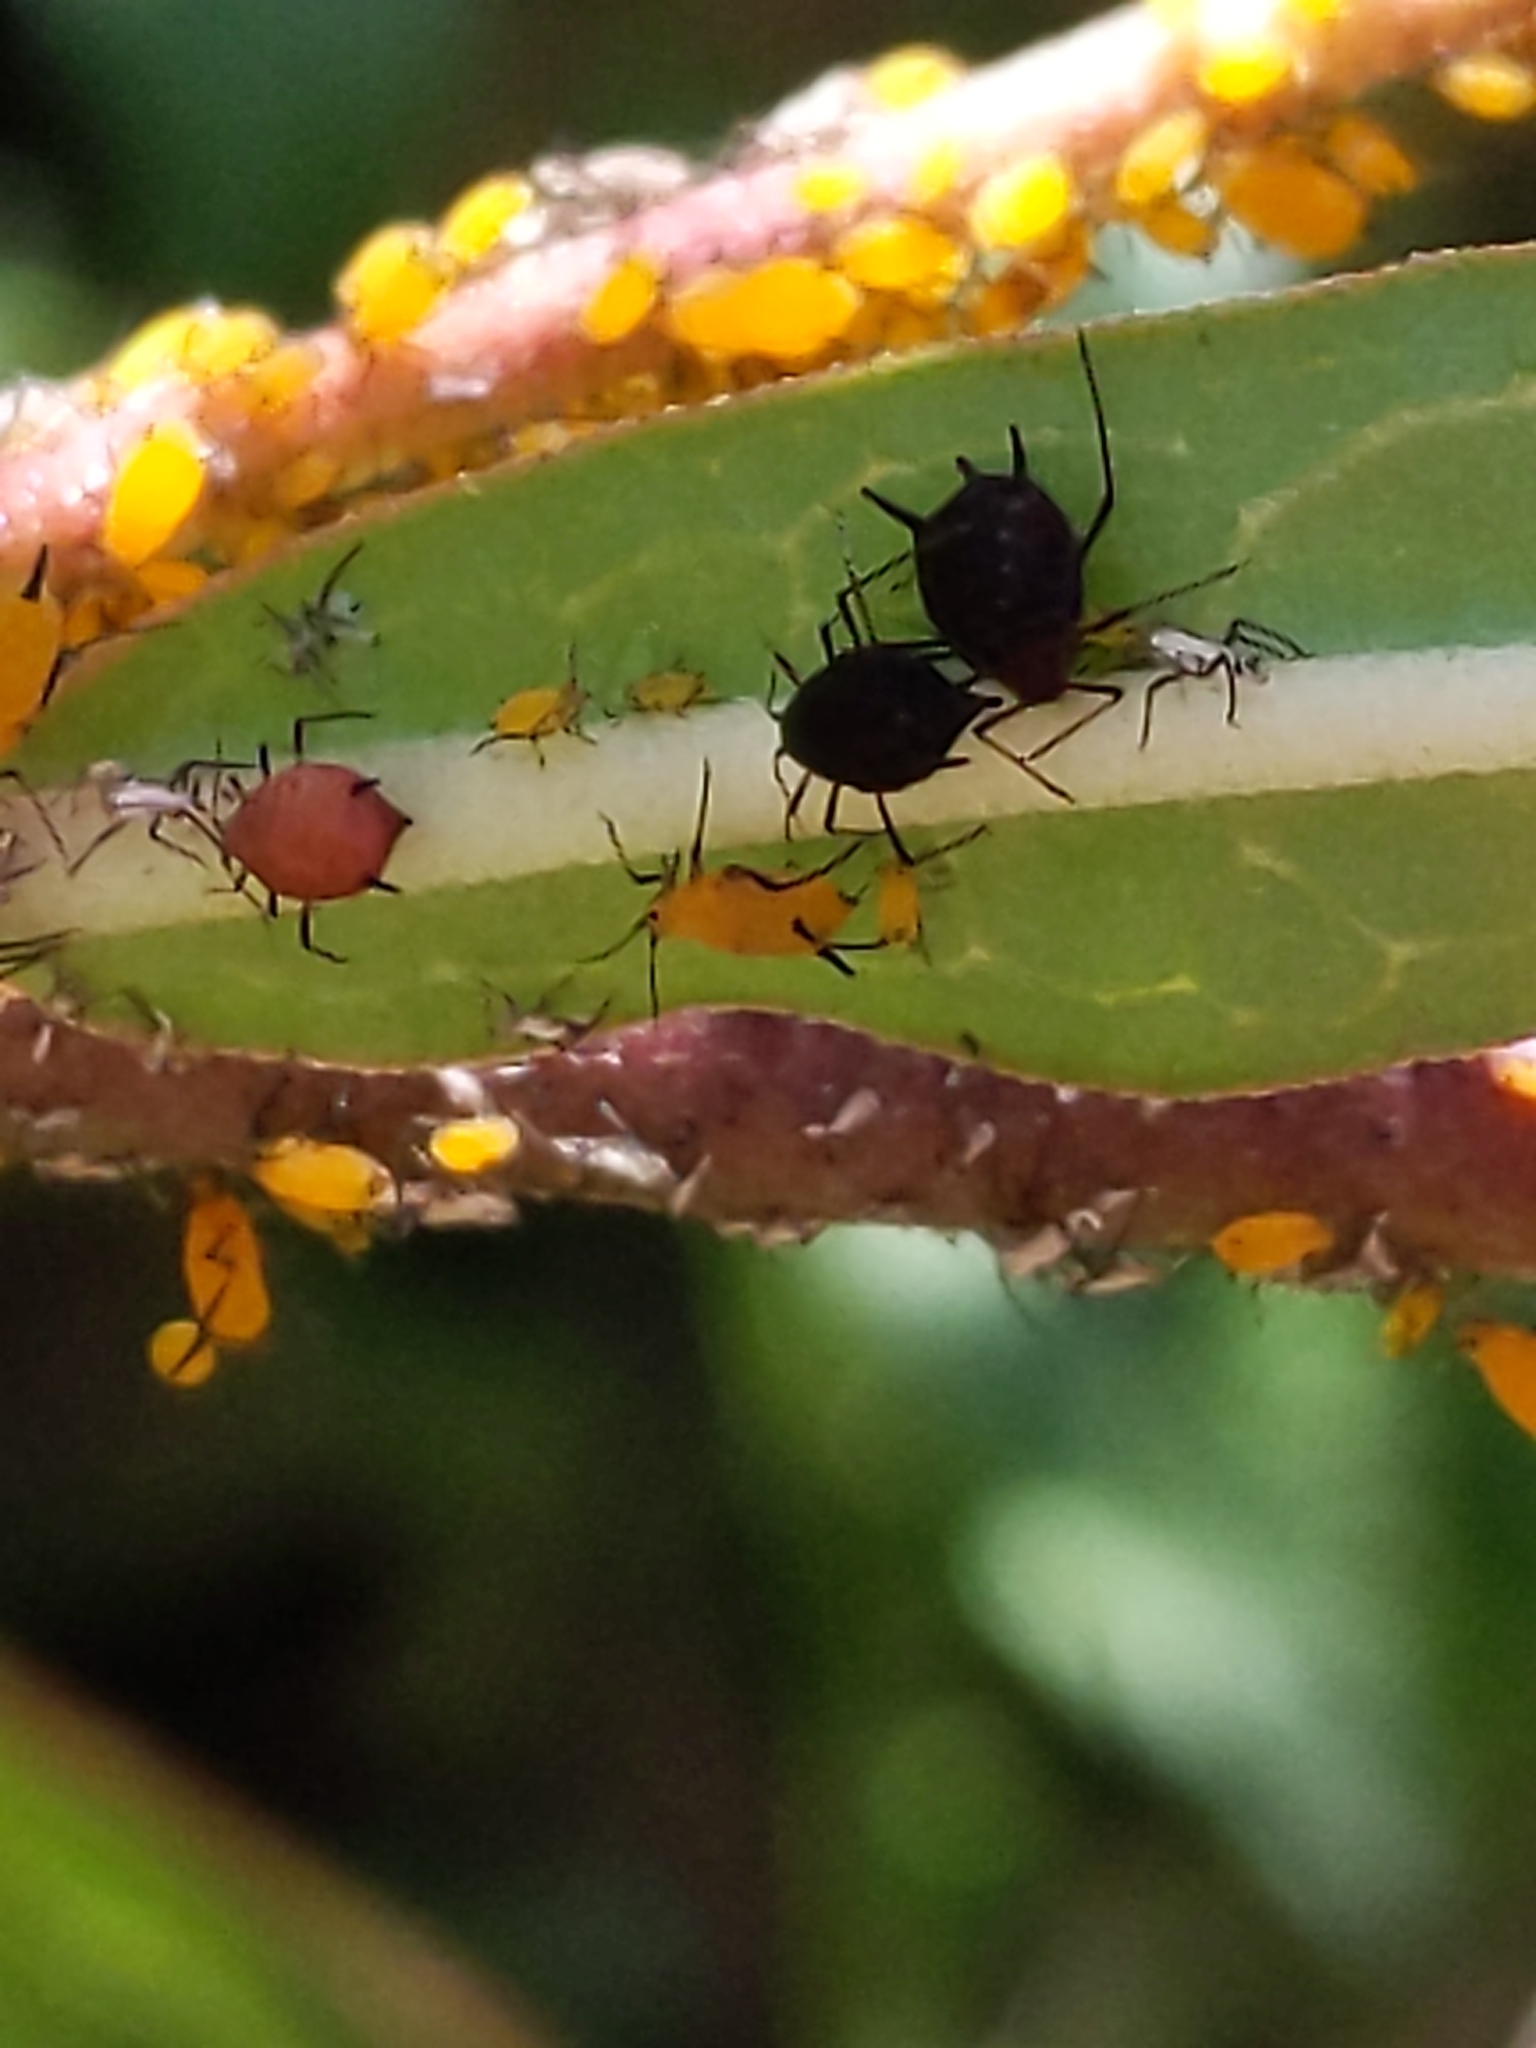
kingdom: Animalia
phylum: Arthropoda
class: Insecta
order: Hemiptera
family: Aphididae
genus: Aphis
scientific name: Aphis nerii
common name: Oleander aphid
